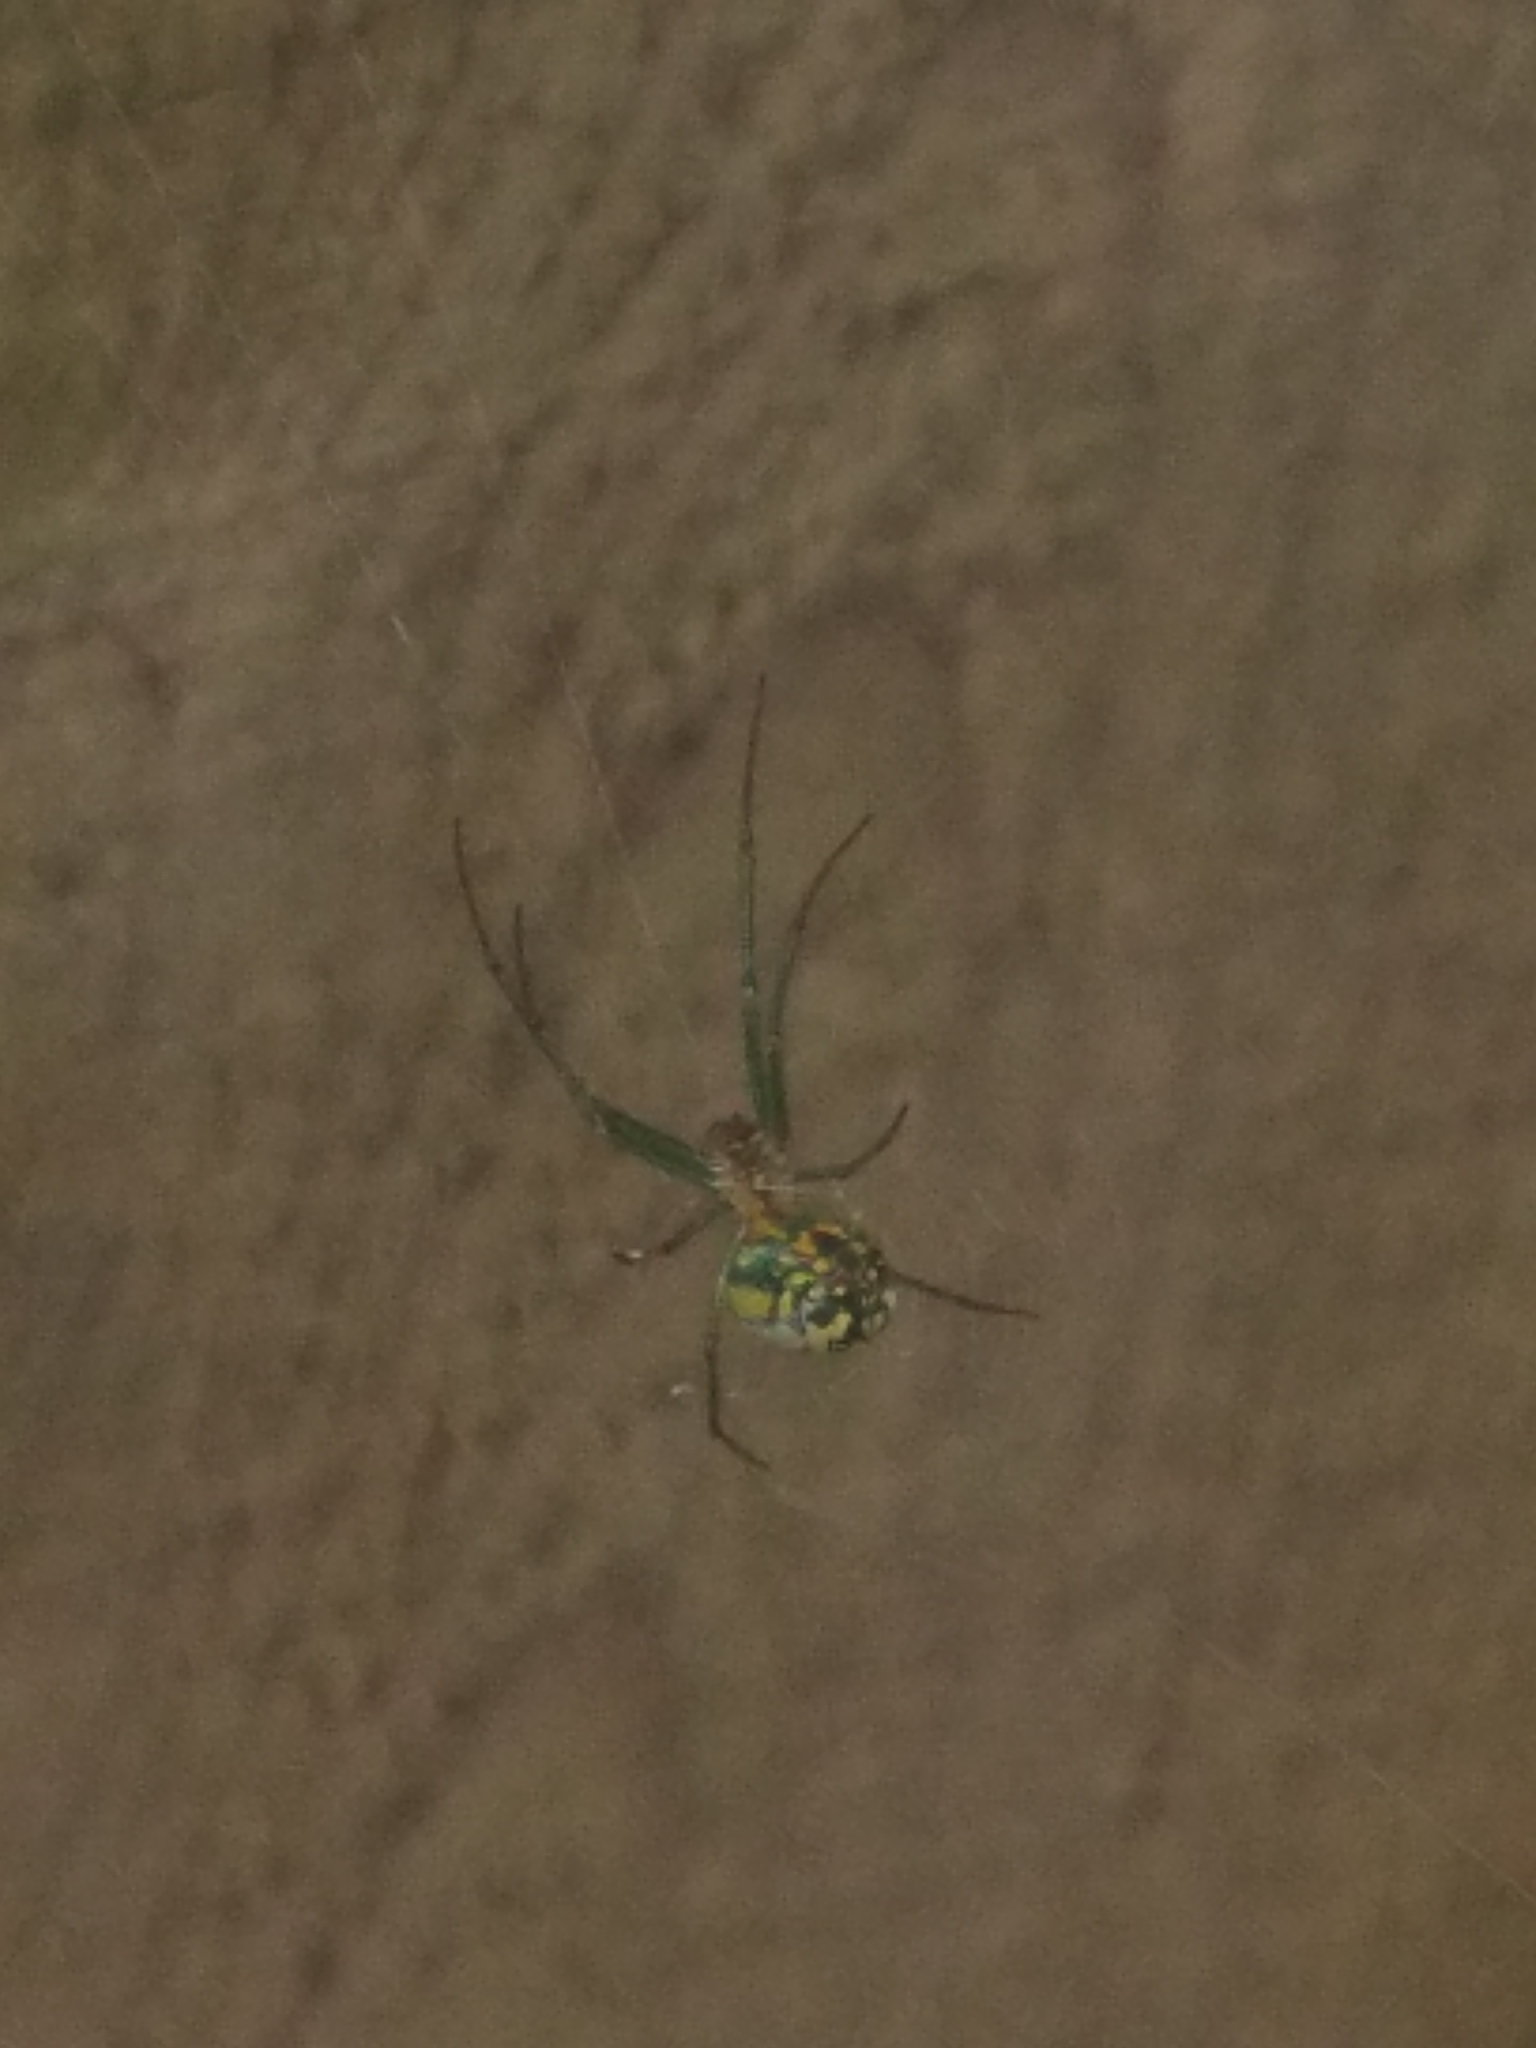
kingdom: Animalia
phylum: Arthropoda
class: Arachnida
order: Araneae
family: Tetragnathidae
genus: Leucauge
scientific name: Leucauge venusta
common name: Longjawed orb weavers
